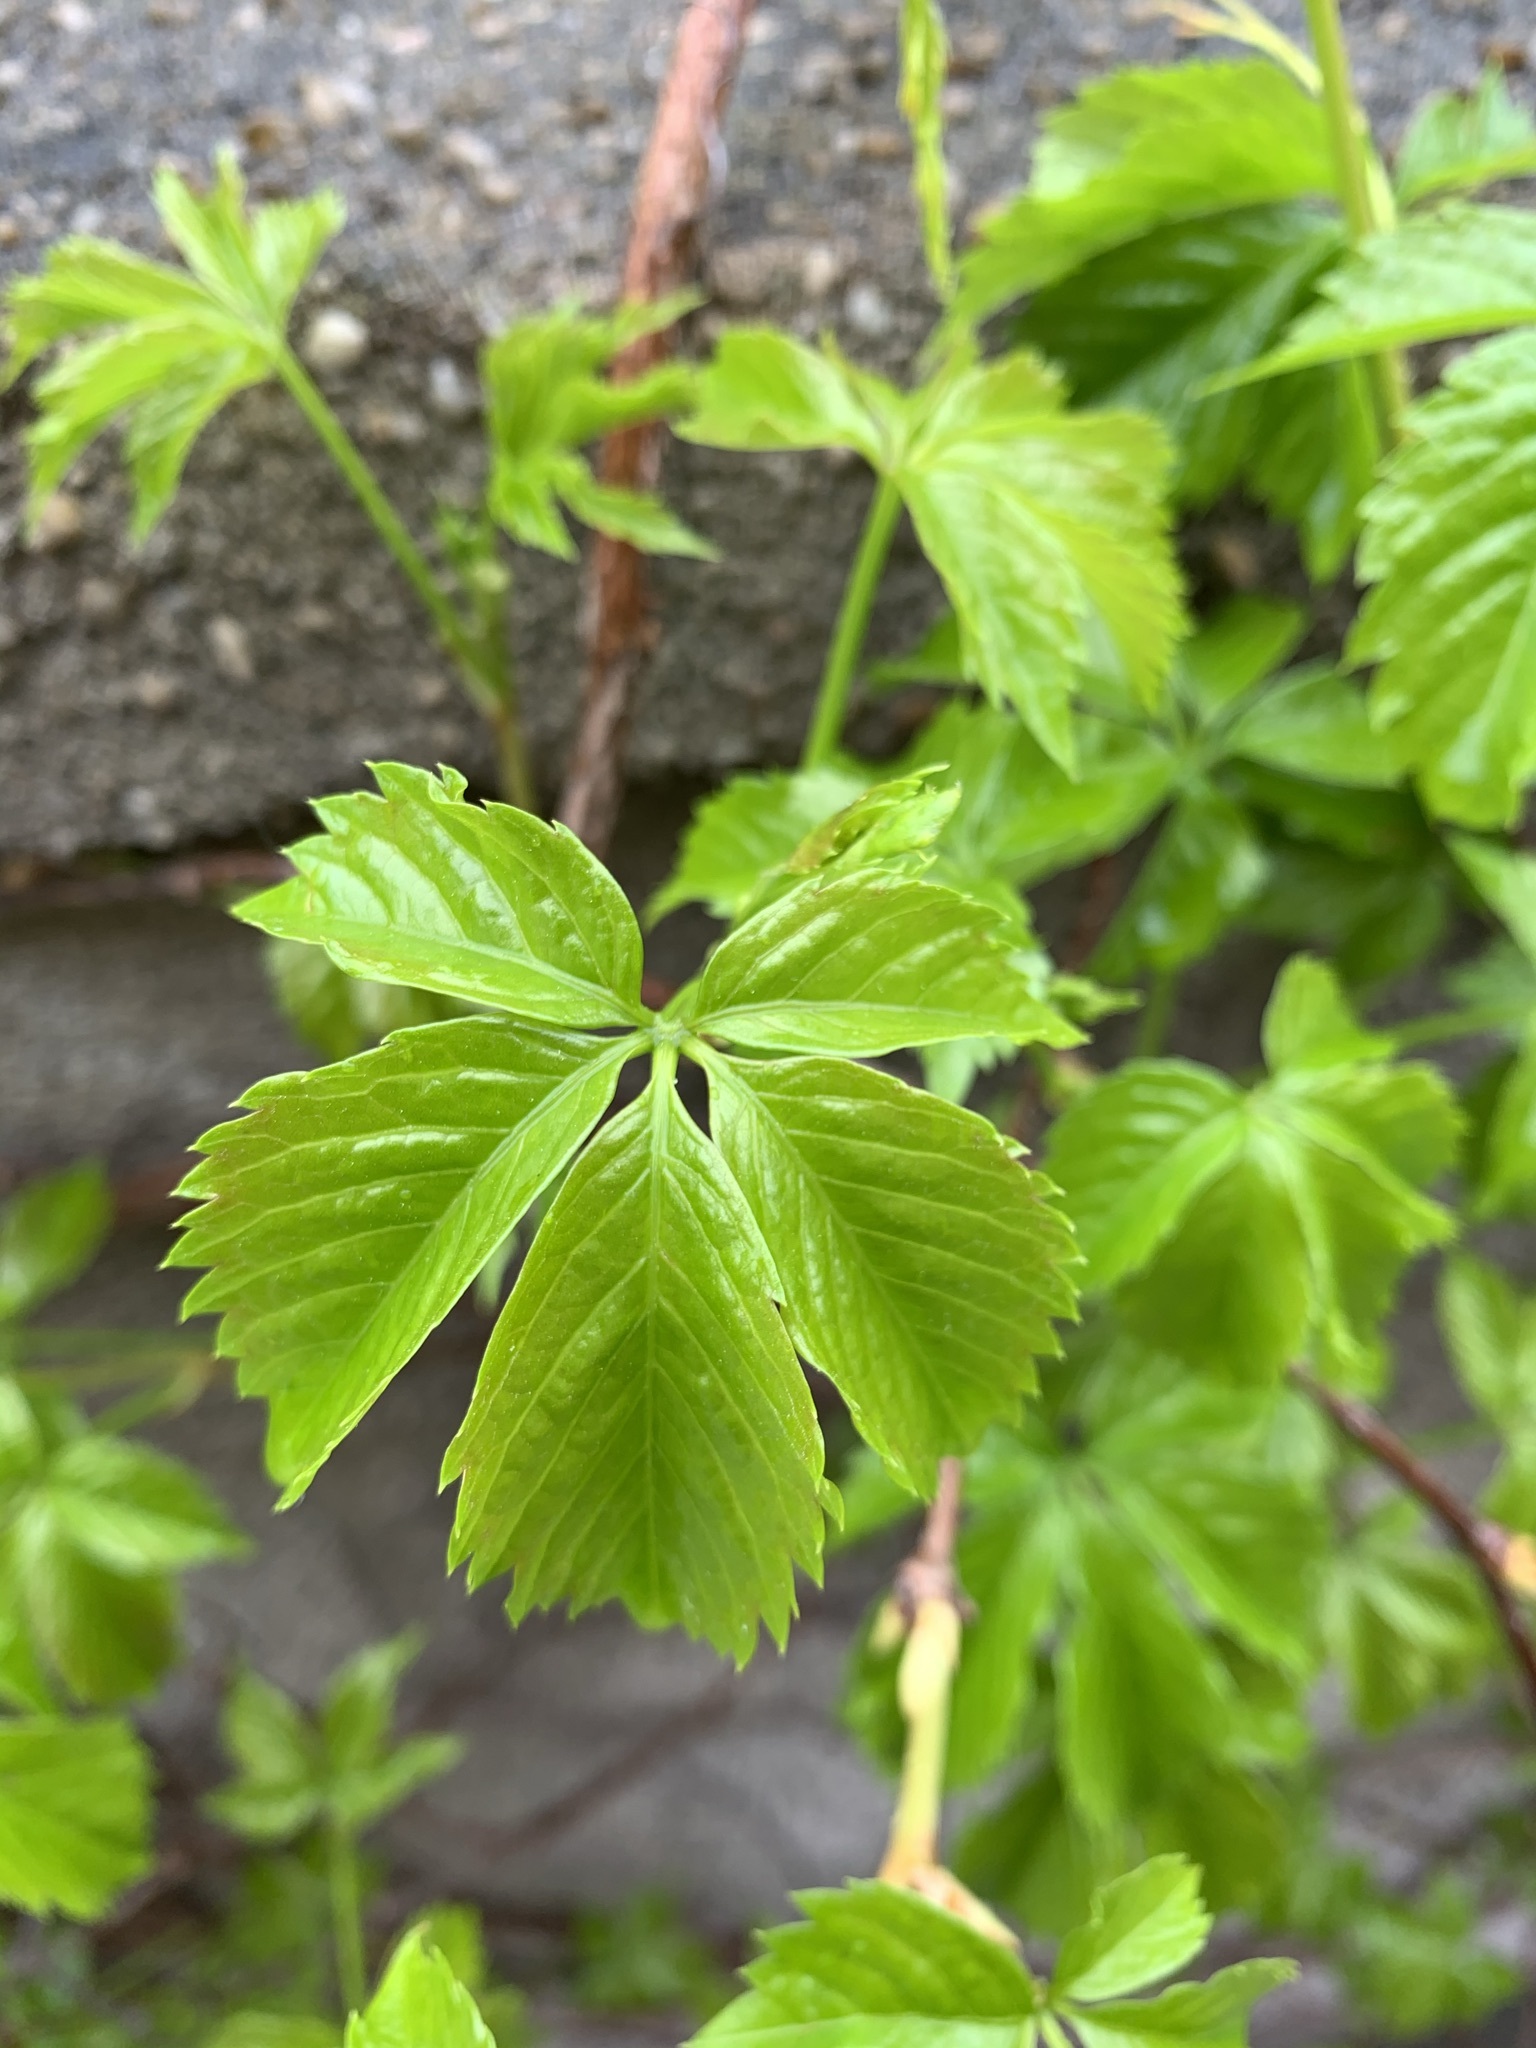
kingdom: Plantae
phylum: Tracheophyta
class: Magnoliopsida
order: Vitales
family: Vitaceae
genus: Parthenocissus
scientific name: Parthenocissus quinquefolia
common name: Virginia-creeper
